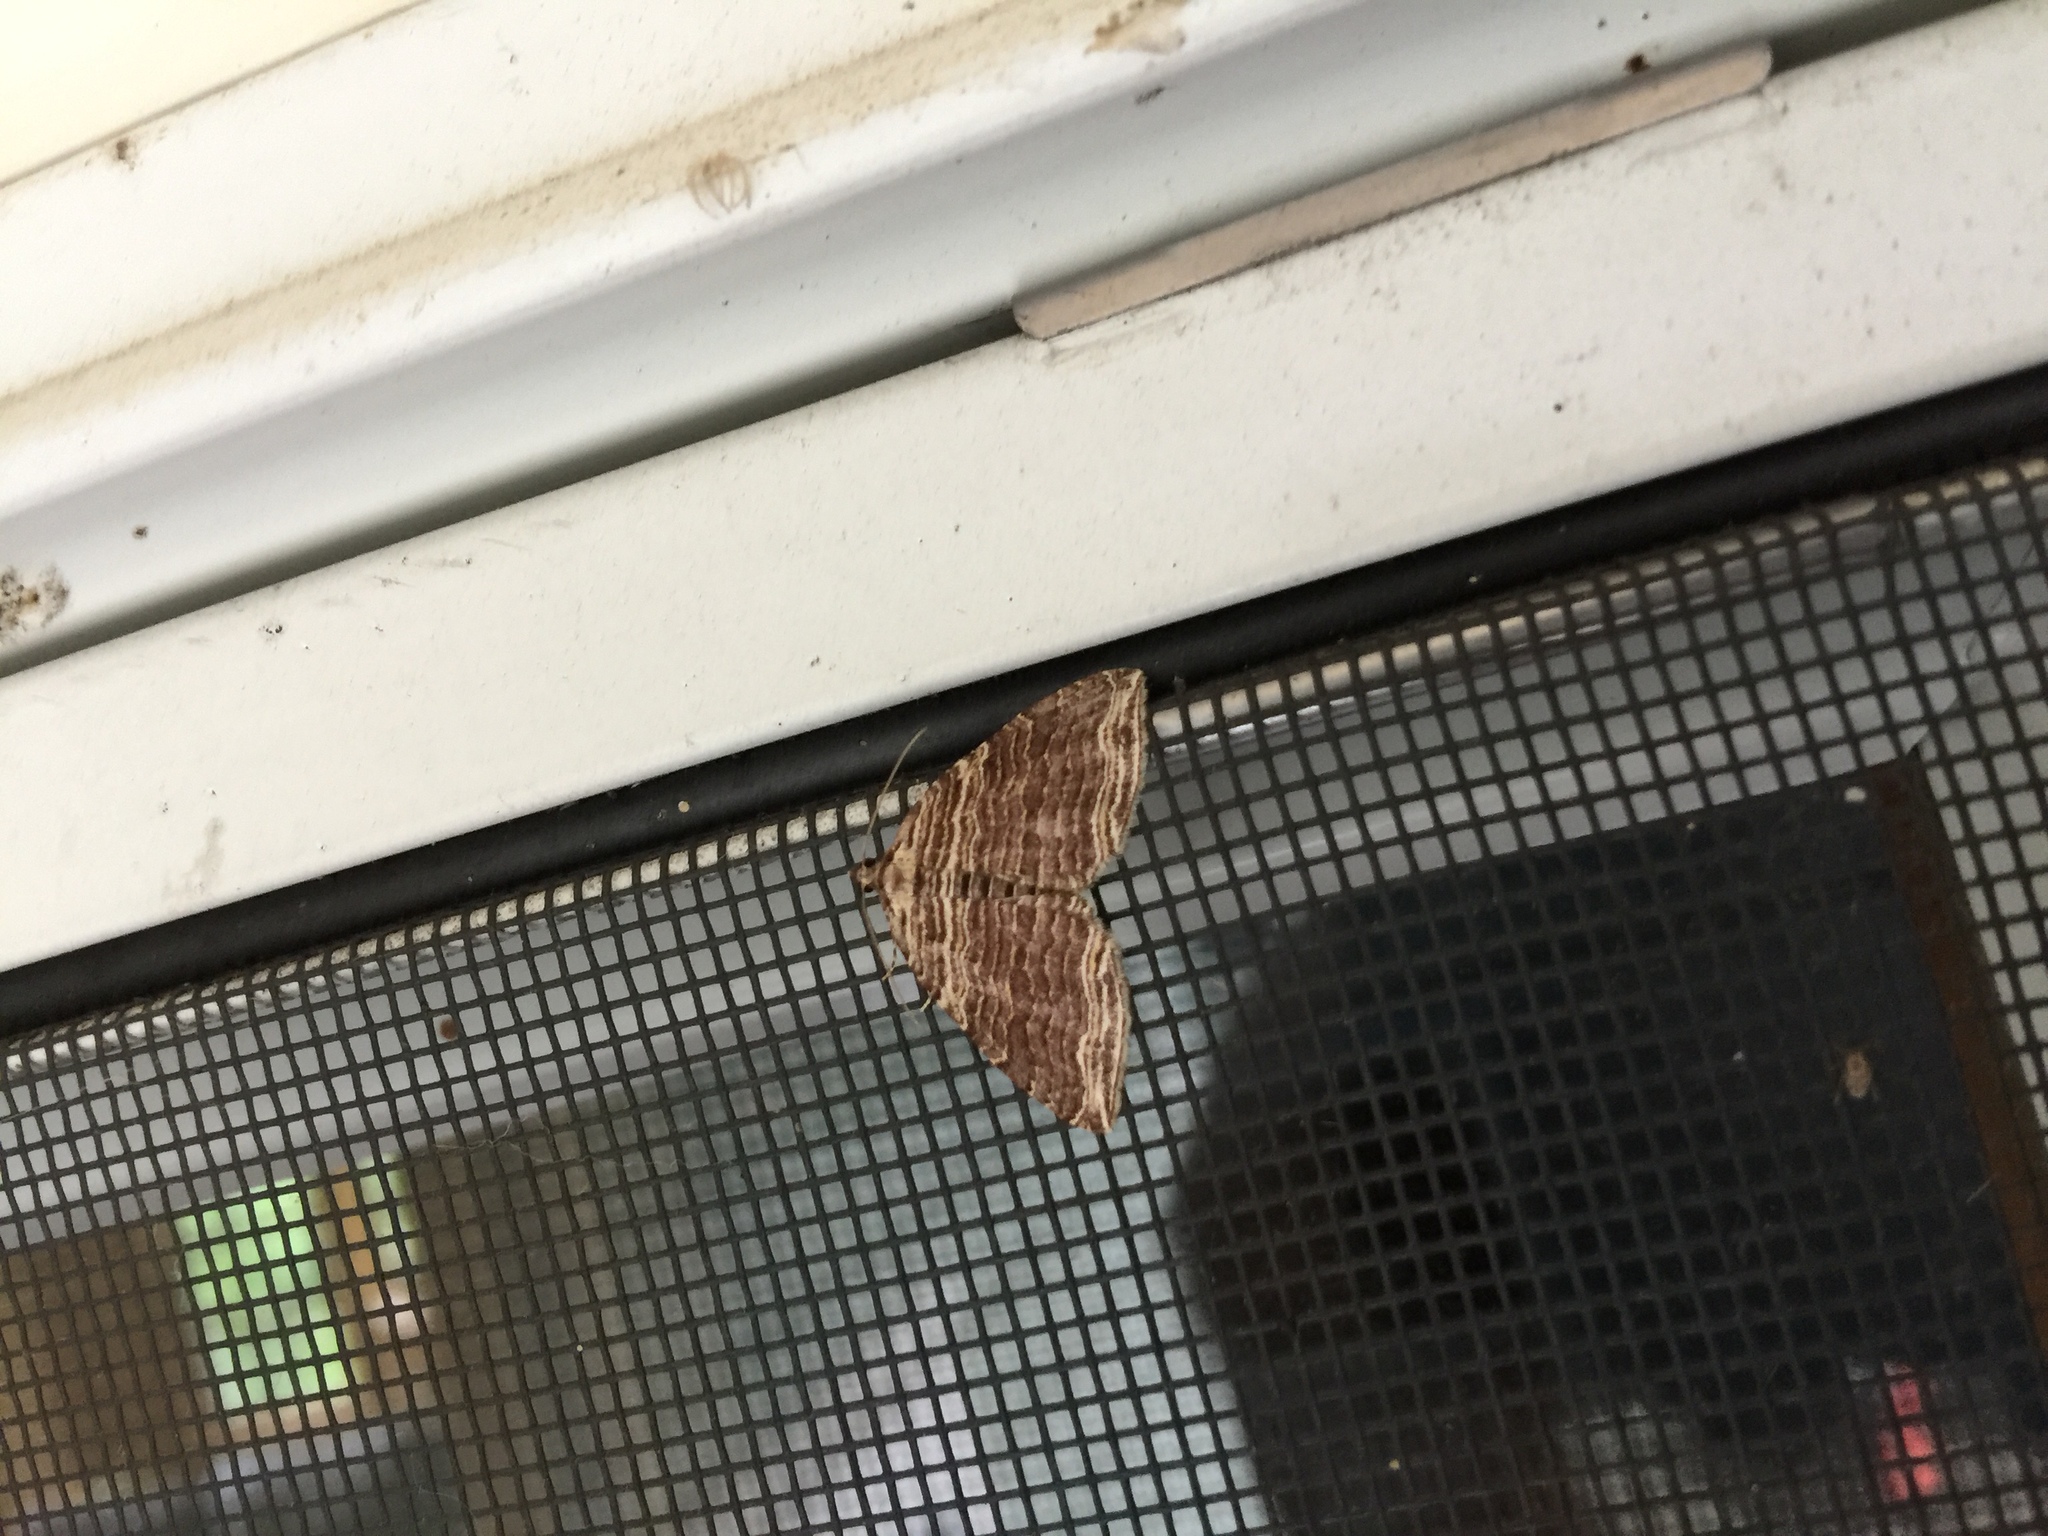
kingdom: Animalia
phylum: Arthropoda
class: Insecta
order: Lepidoptera
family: Geometridae
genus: Anticlea
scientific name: Anticlea multiferata
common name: Many-lined carpet
